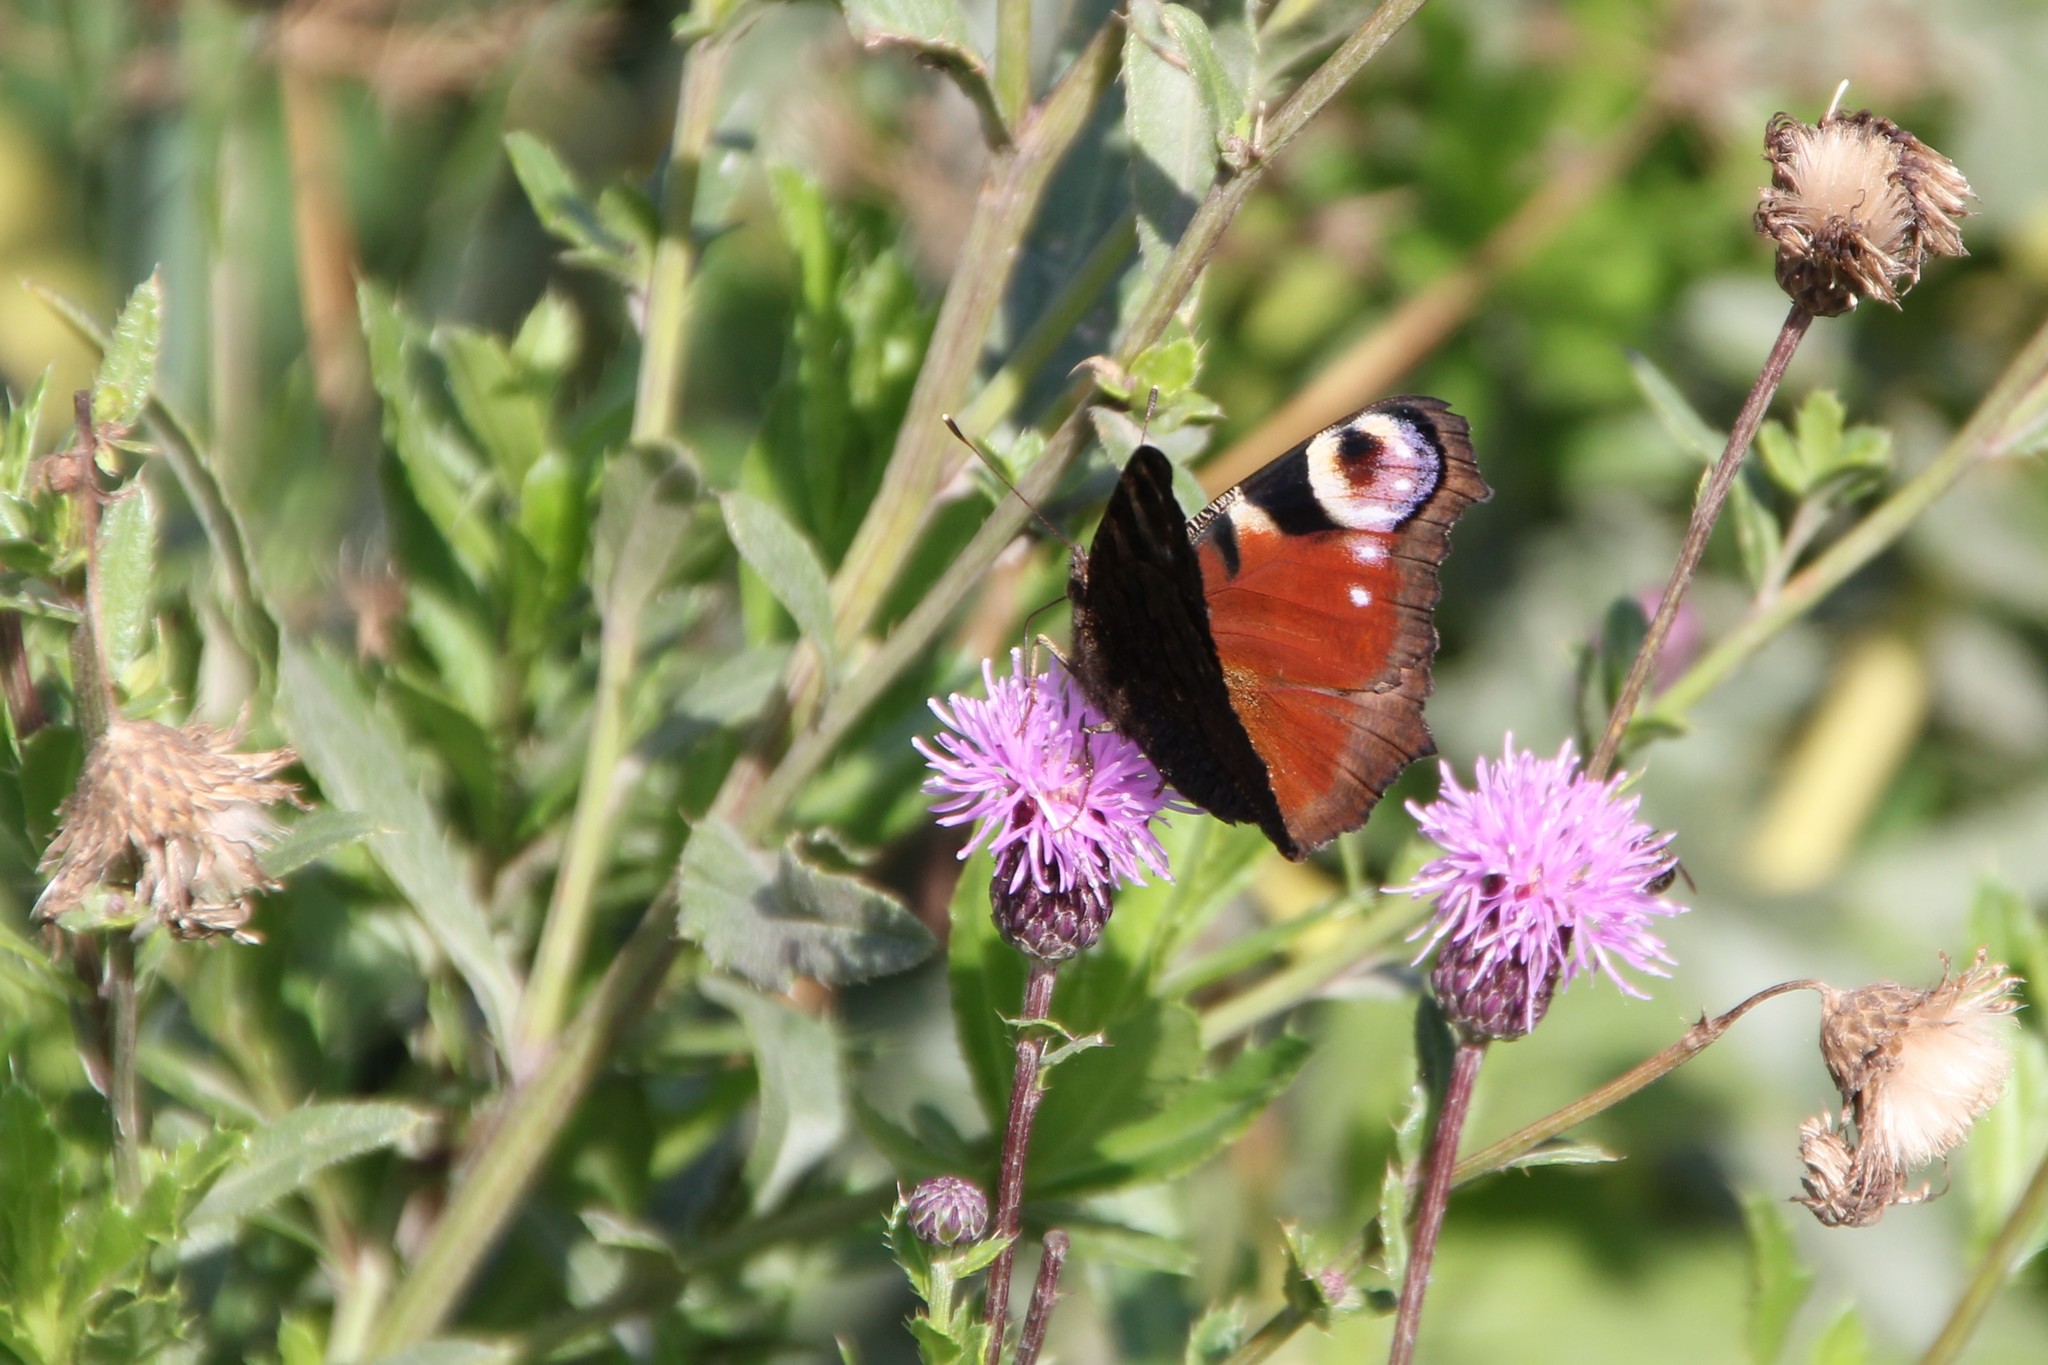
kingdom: Animalia
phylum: Arthropoda
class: Insecta
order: Lepidoptera
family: Nymphalidae
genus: Aglais
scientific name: Aglais io
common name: Peacock
